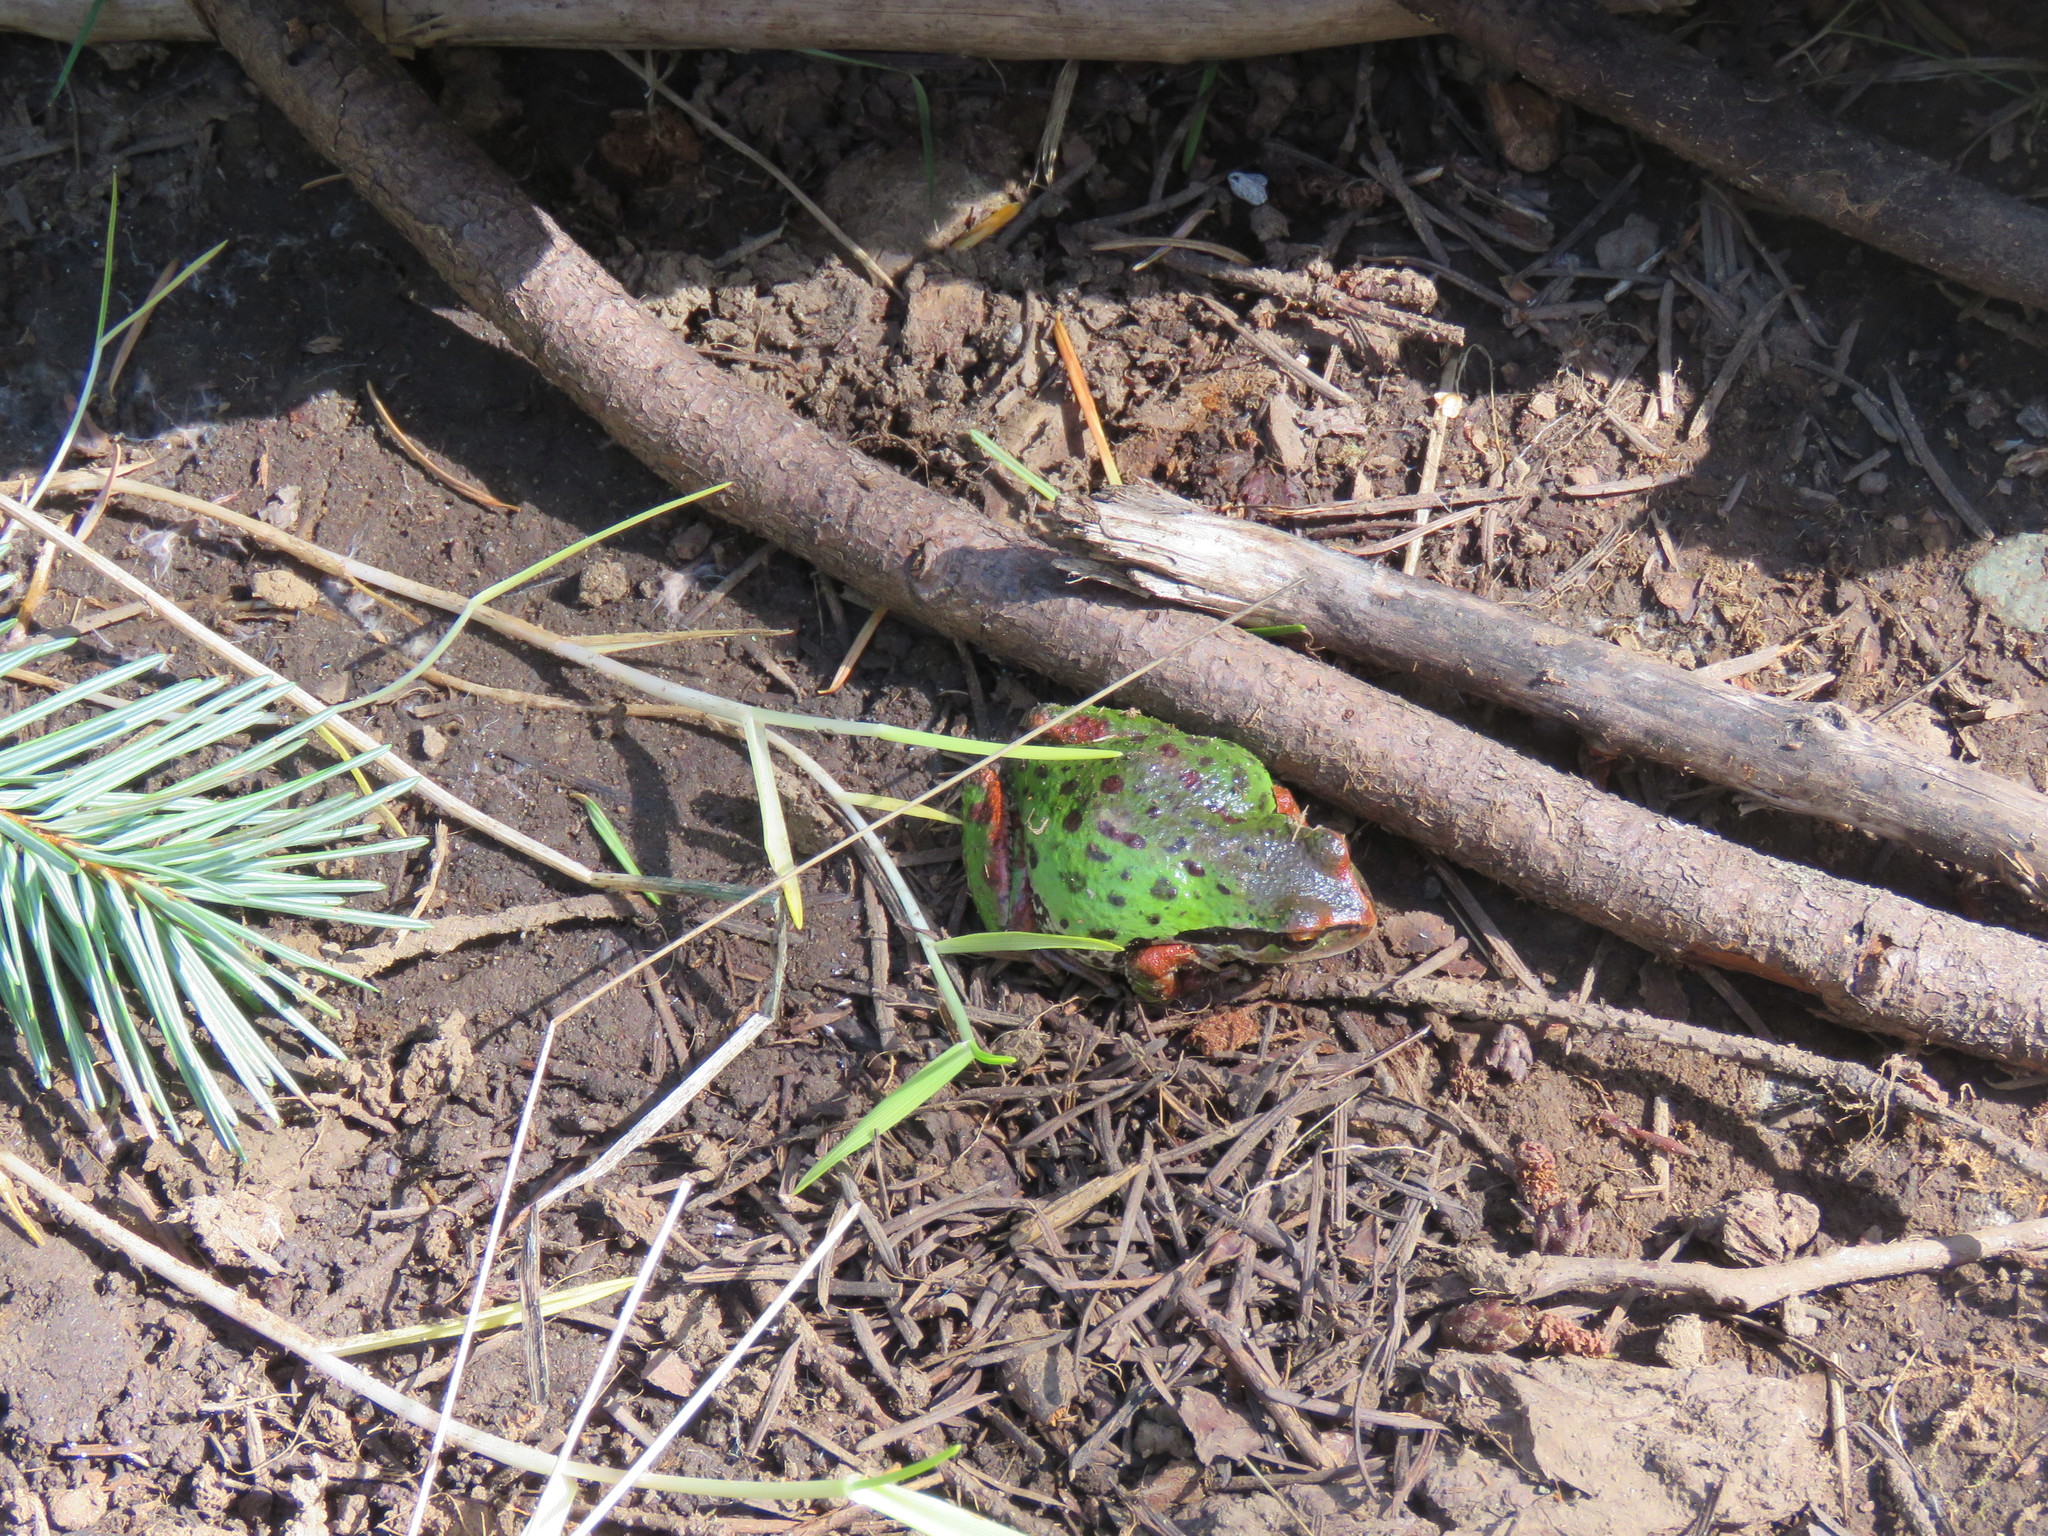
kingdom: Animalia
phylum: Chordata
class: Amphibia
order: Anura
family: Hylidae
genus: Pseudacris
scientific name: Pseudacris regilla
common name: Pacific chorus frog
